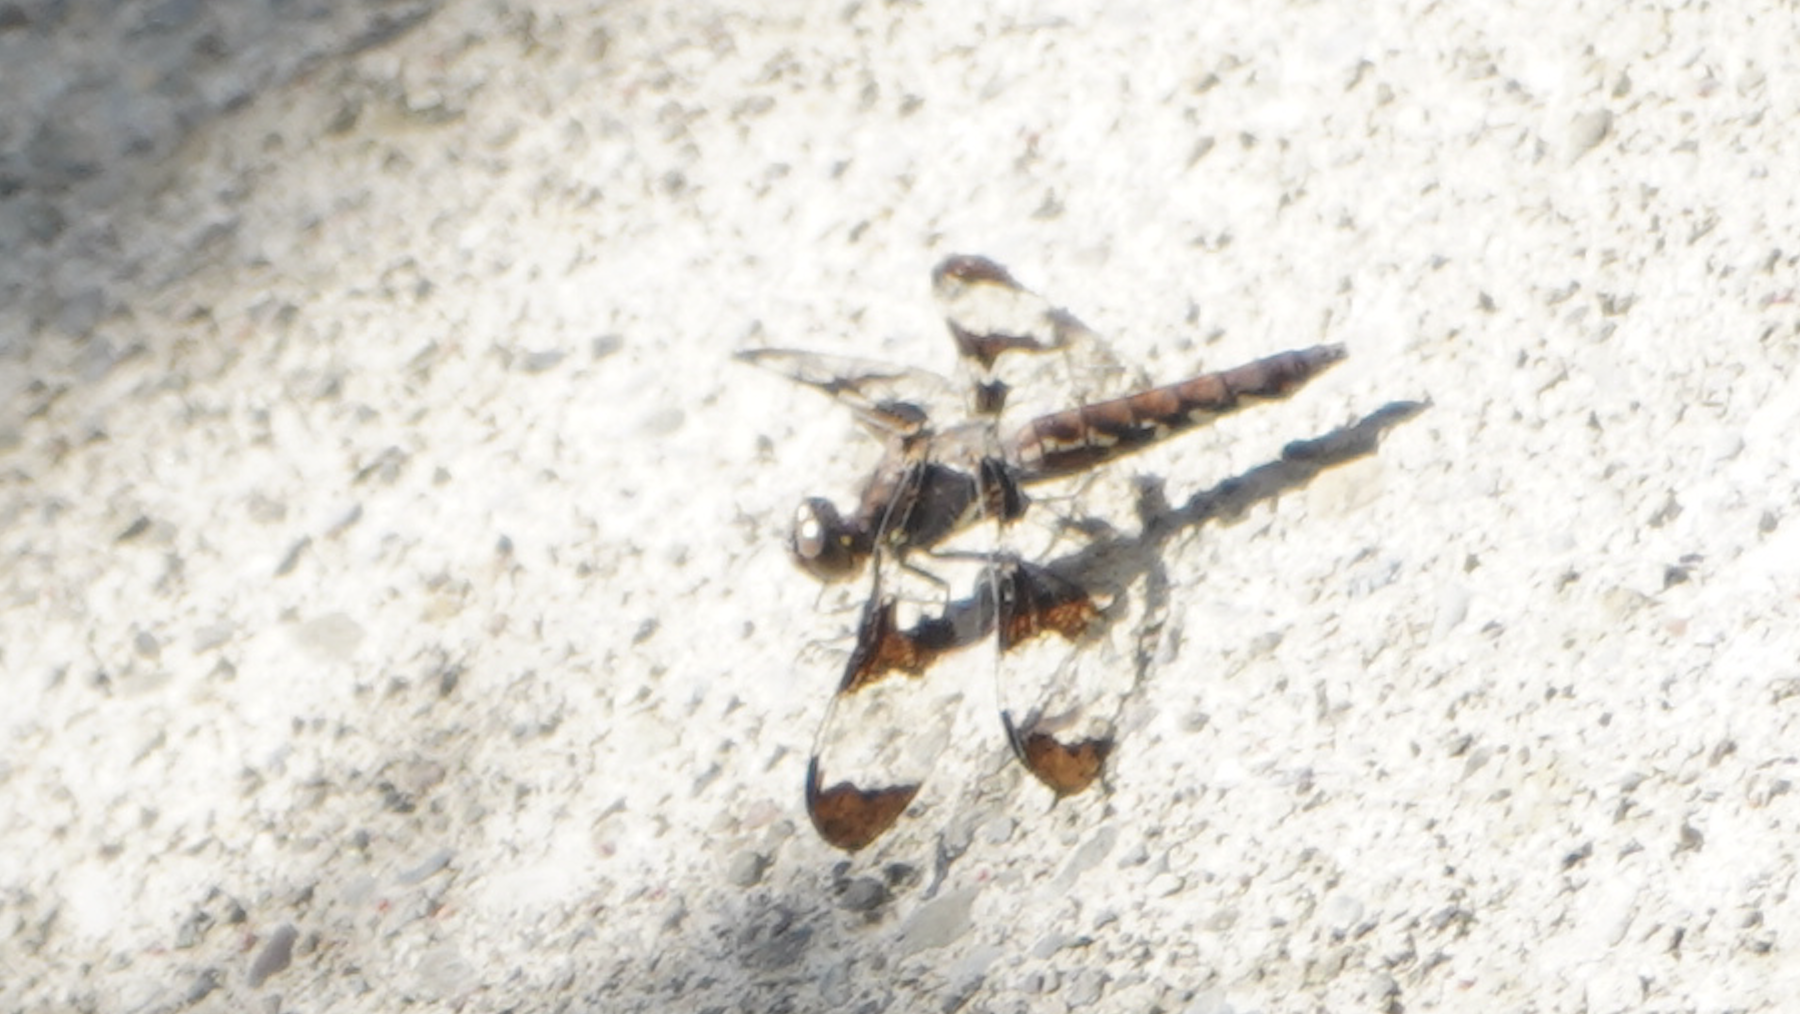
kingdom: Animalia
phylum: Arthropoda
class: Insecta
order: Odonata
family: Libellulidae
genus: Plathemis
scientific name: Plathemis lydia
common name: Common whitetail
